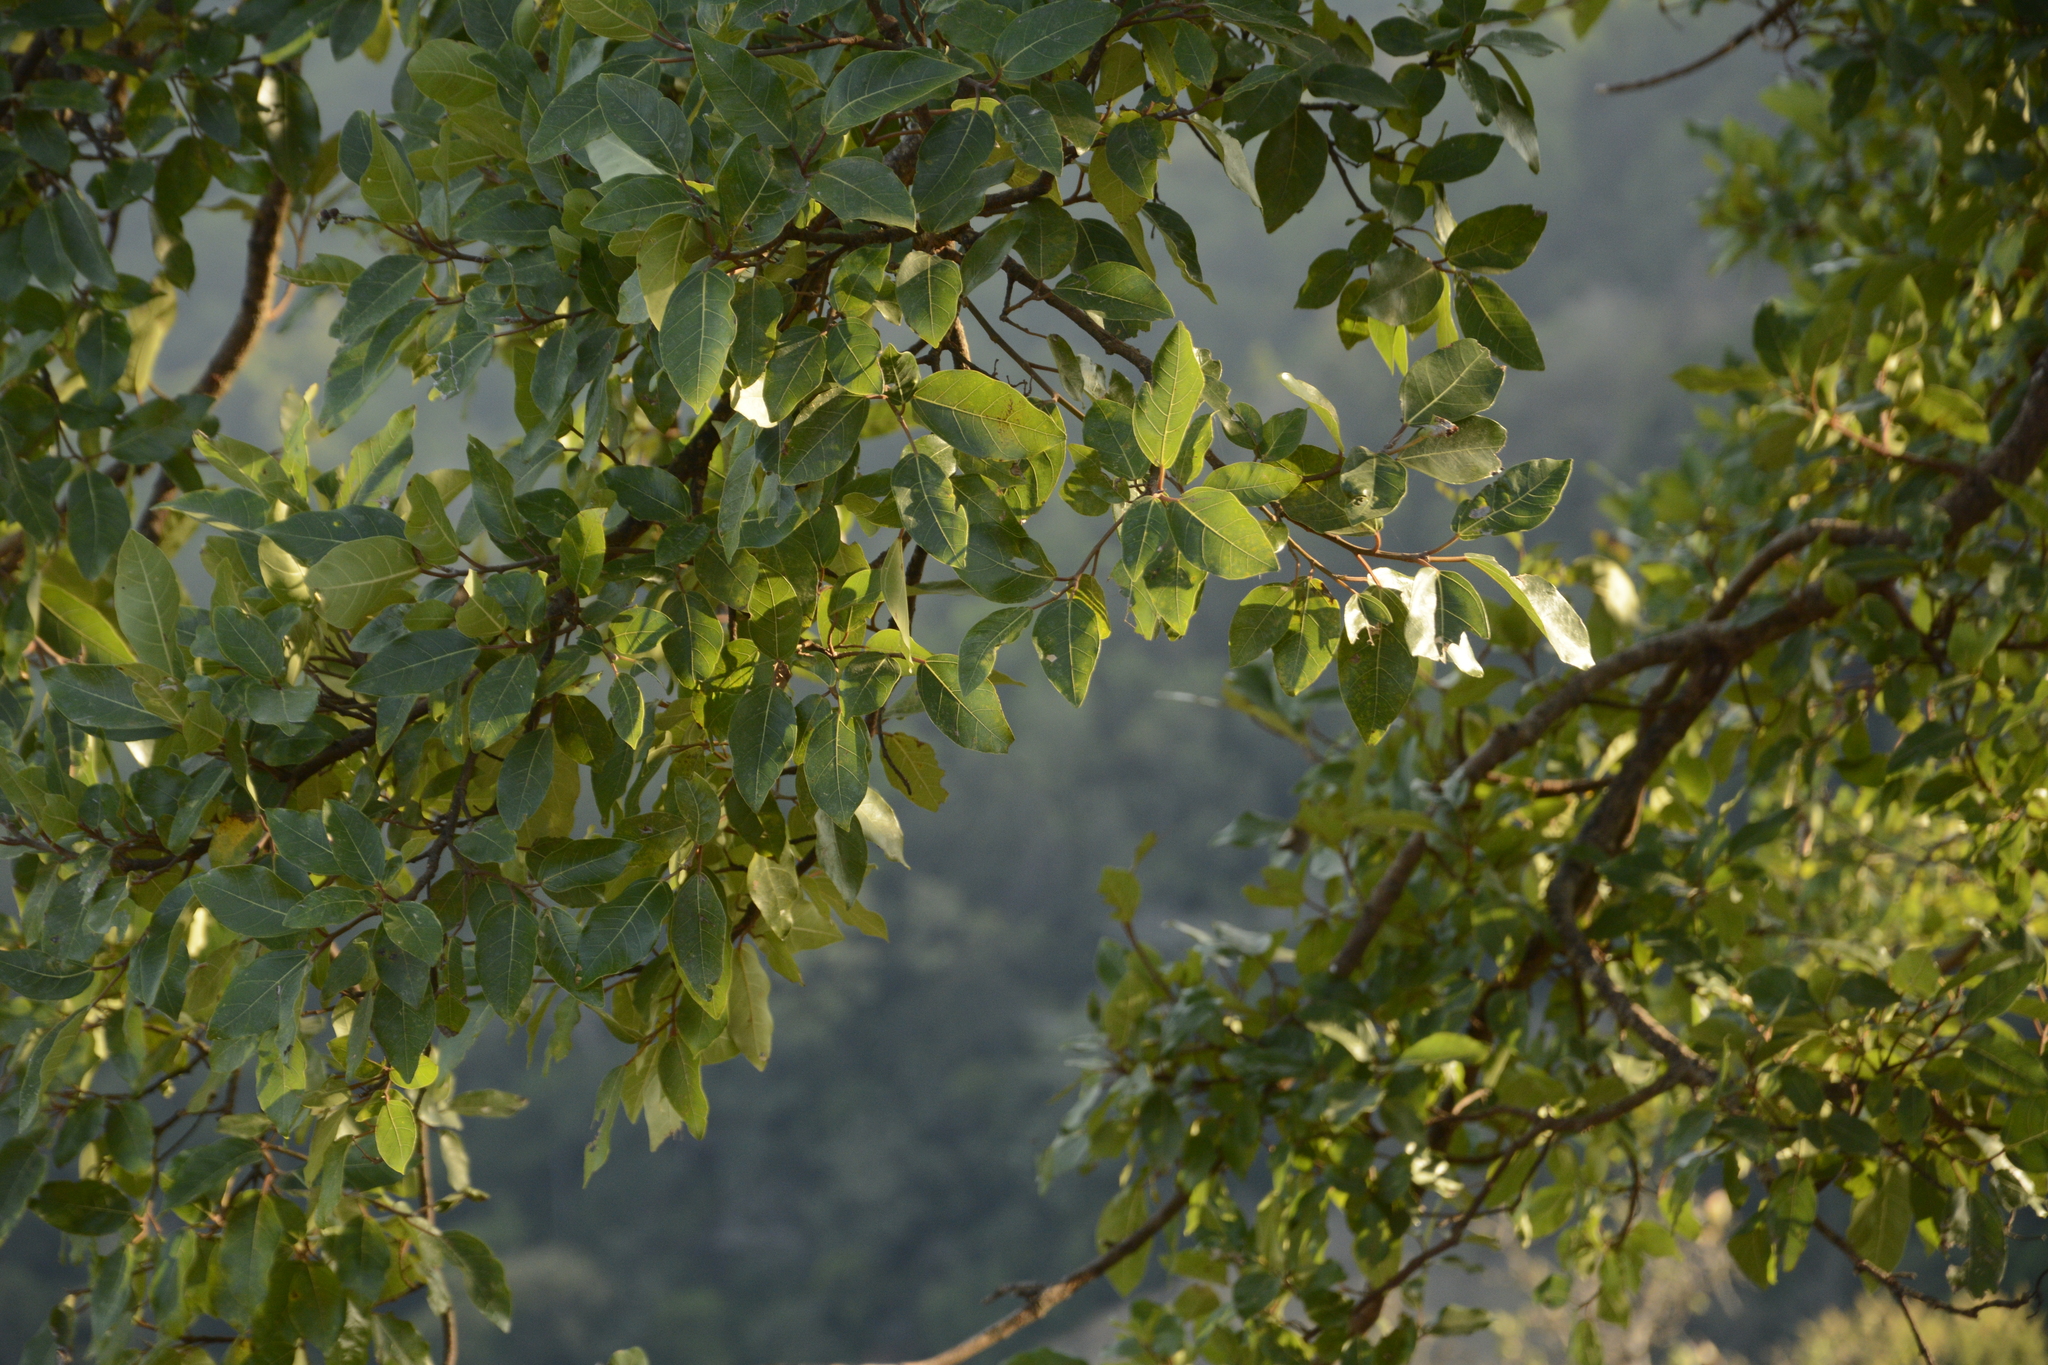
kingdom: Plantae
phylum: Tracheophyta
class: Magnoliopsida
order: Rosales
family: Moraceae
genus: Ficus
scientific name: Ficus racemosa
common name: Cluster fig
